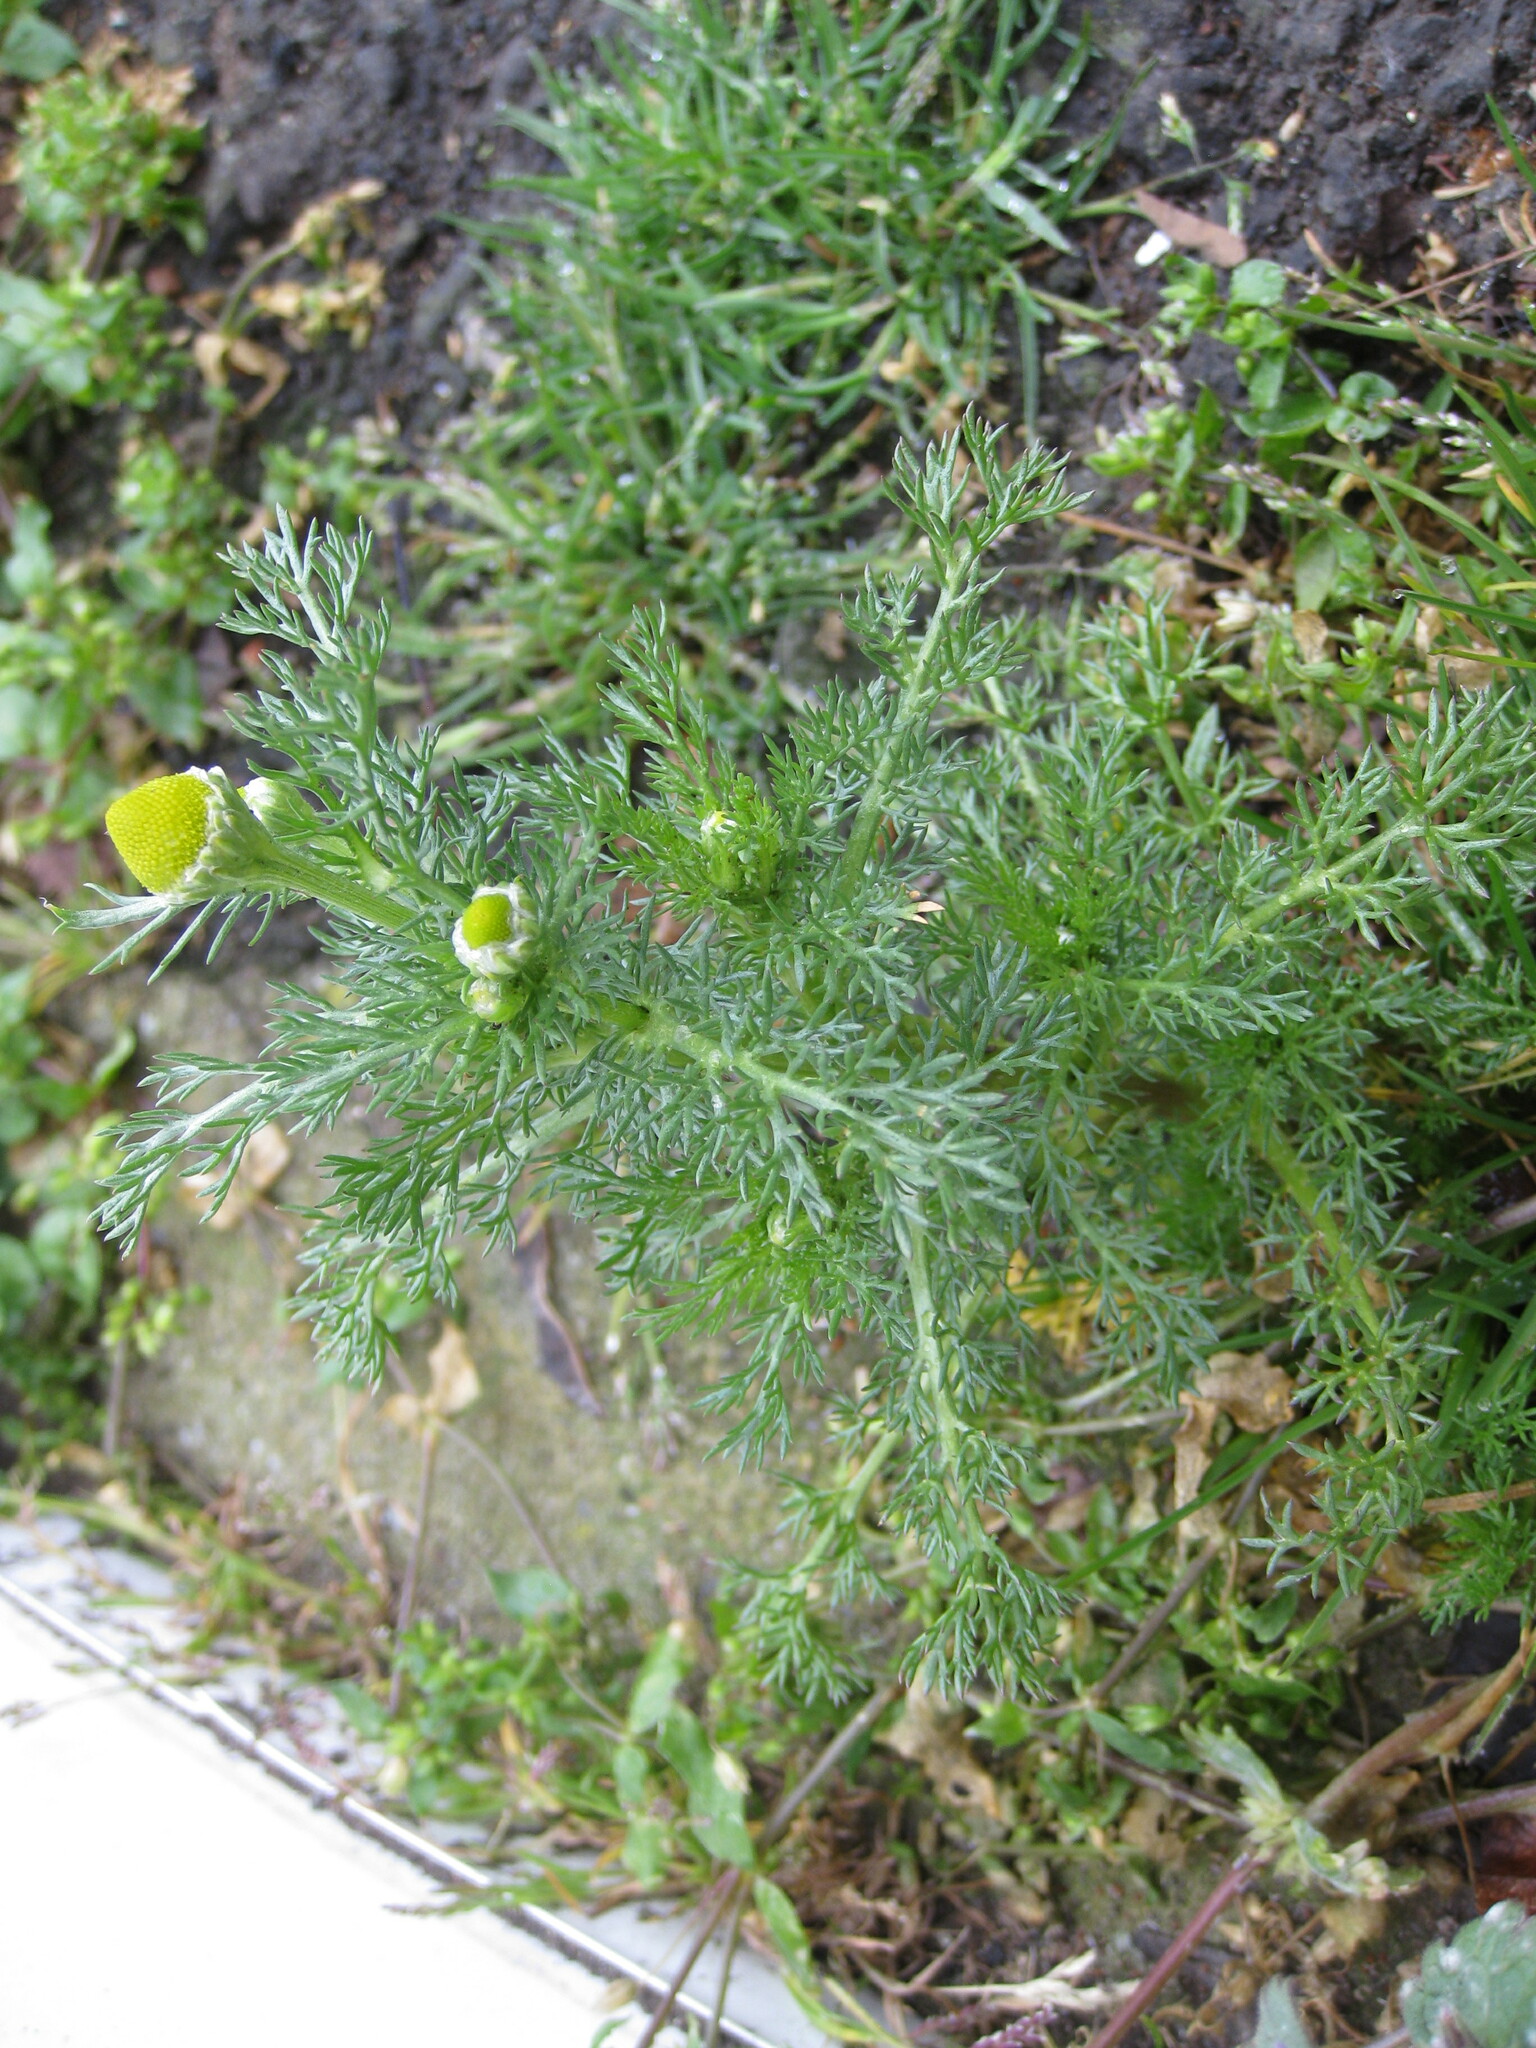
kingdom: Plantae
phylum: Tracheophyta
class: Magnoliopsida
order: Asterales
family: Asteraceae
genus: Matricaria
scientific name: Matricaria discoidea
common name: Disc mayweed
